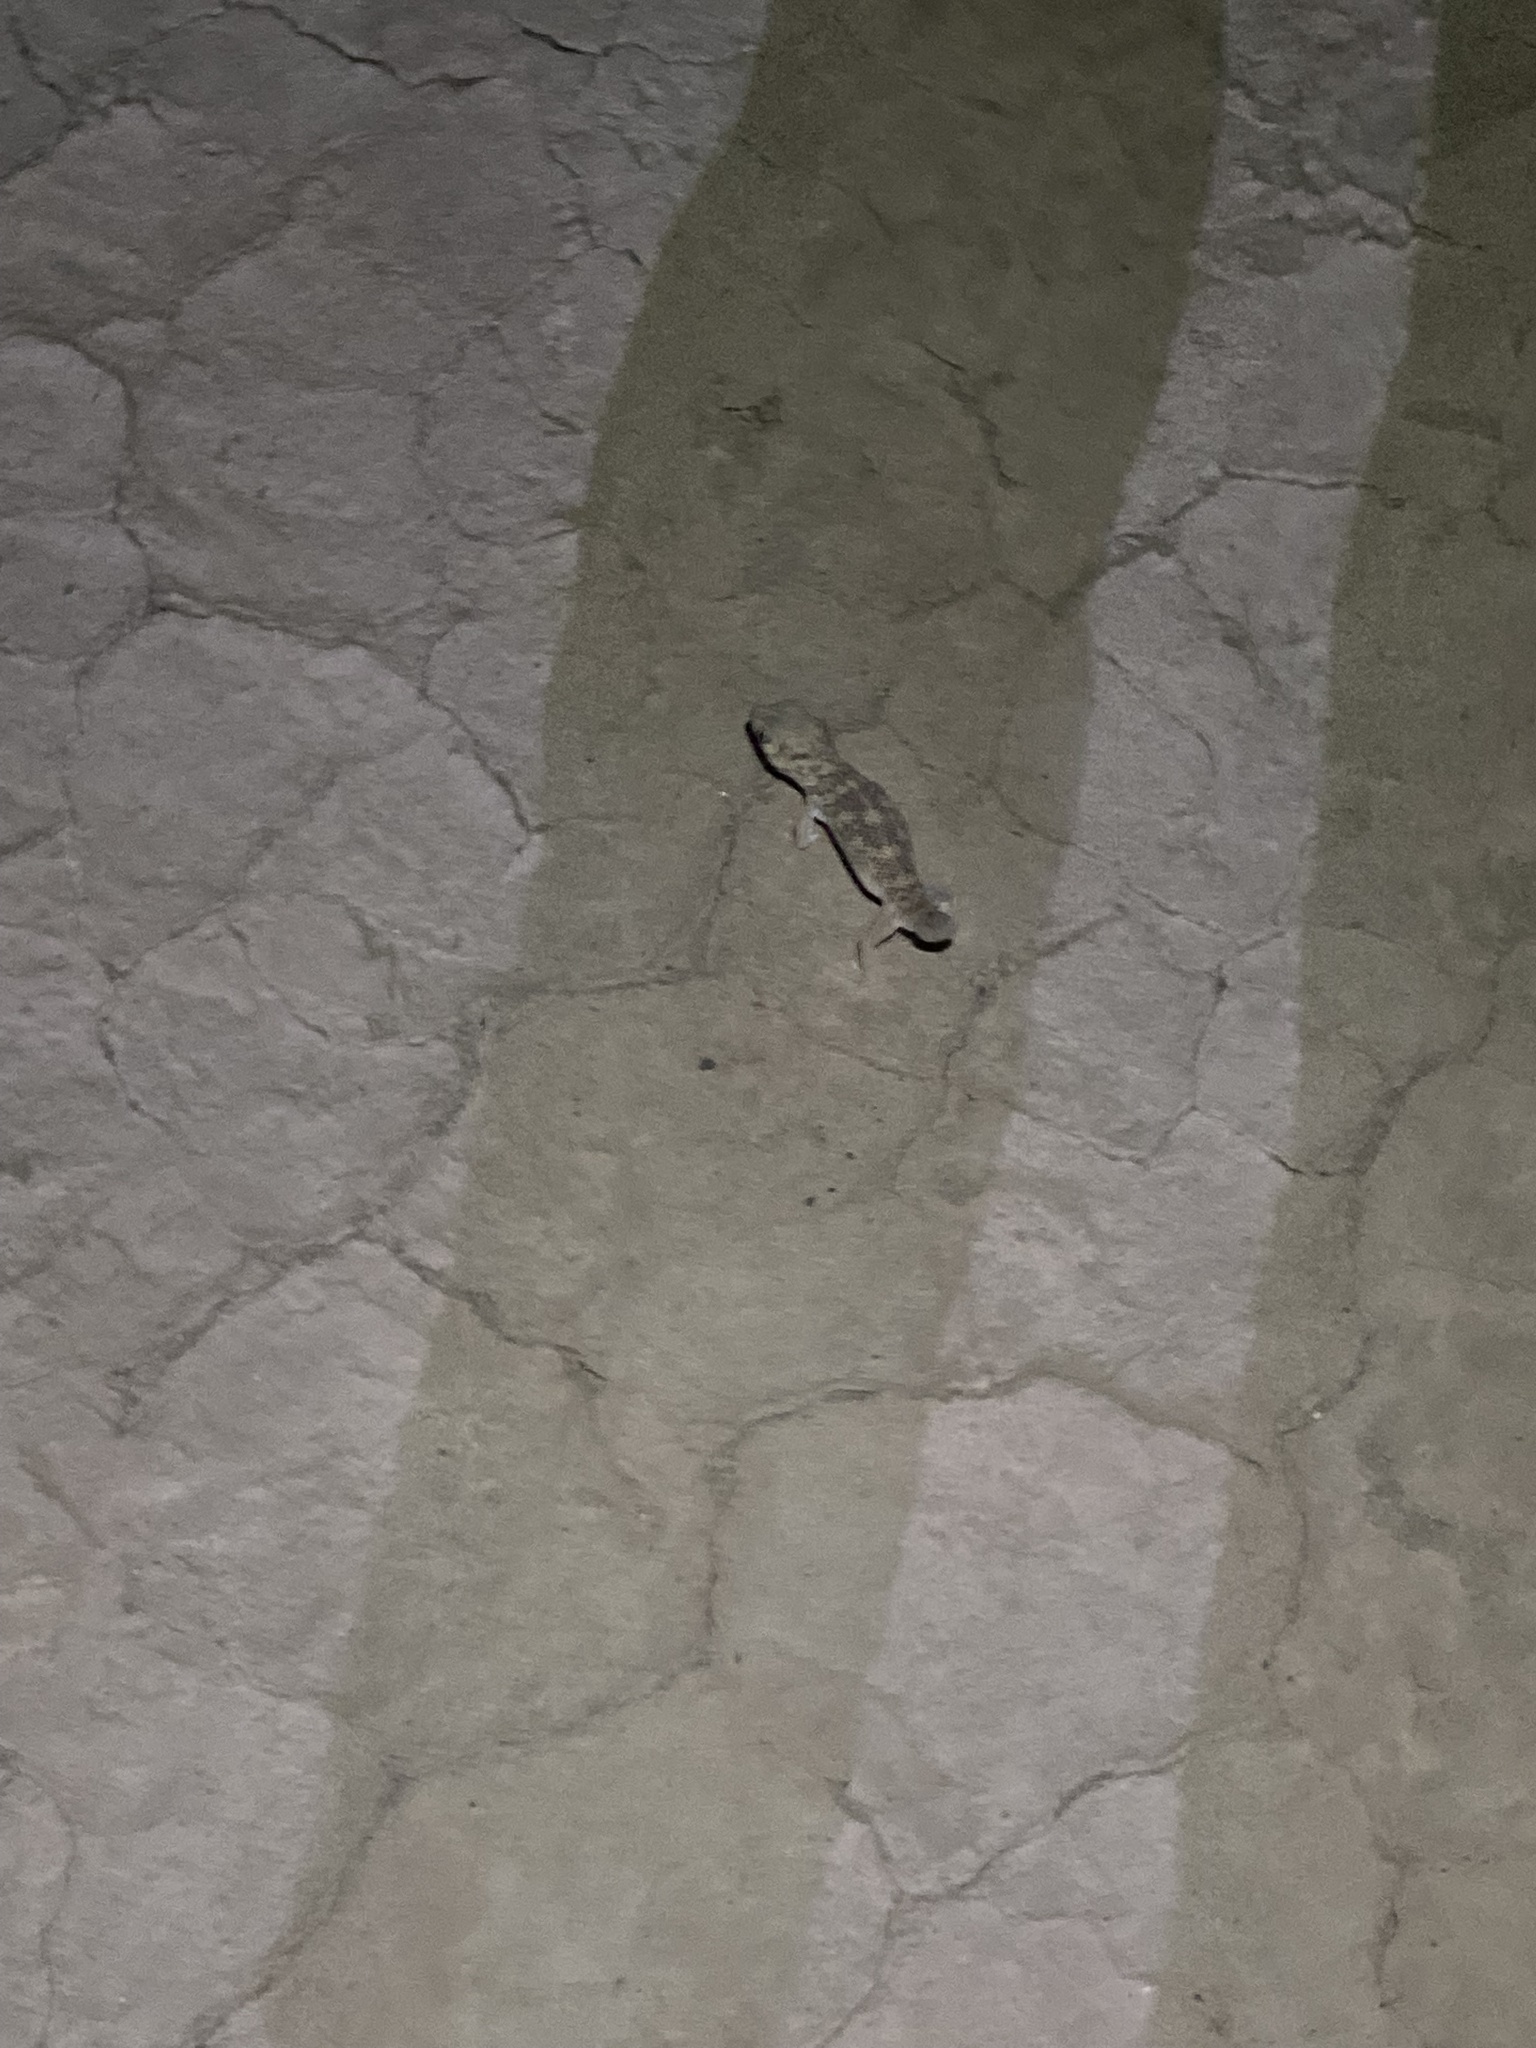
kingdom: Animalia
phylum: Chordata
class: Squamata
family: Sphaerodactylidae
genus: Teratoscincus
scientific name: Teratoscincus bedriagai
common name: Bedriaga's plate-tailed gecko
